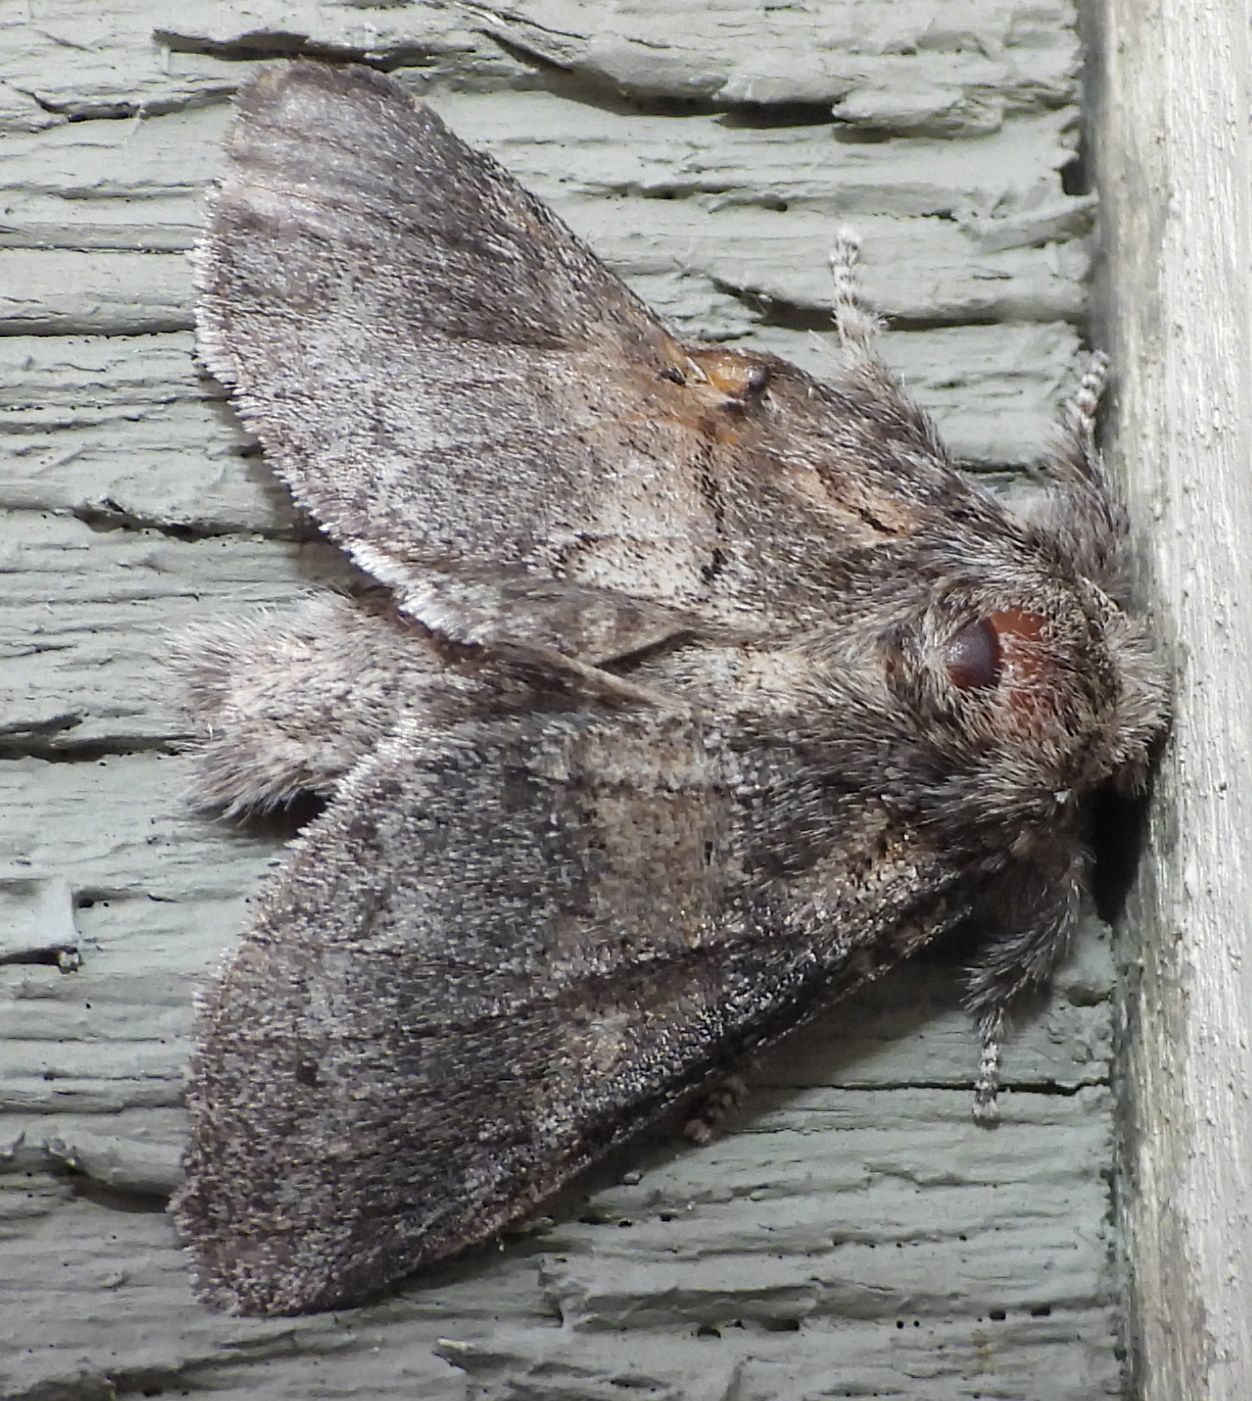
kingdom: Animalia
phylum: Arthropoda
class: Insecta
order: Lepidoptera
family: Notodontidae
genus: Gluphisia
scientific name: Gluphisia septentrionis
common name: Common gluphisia
